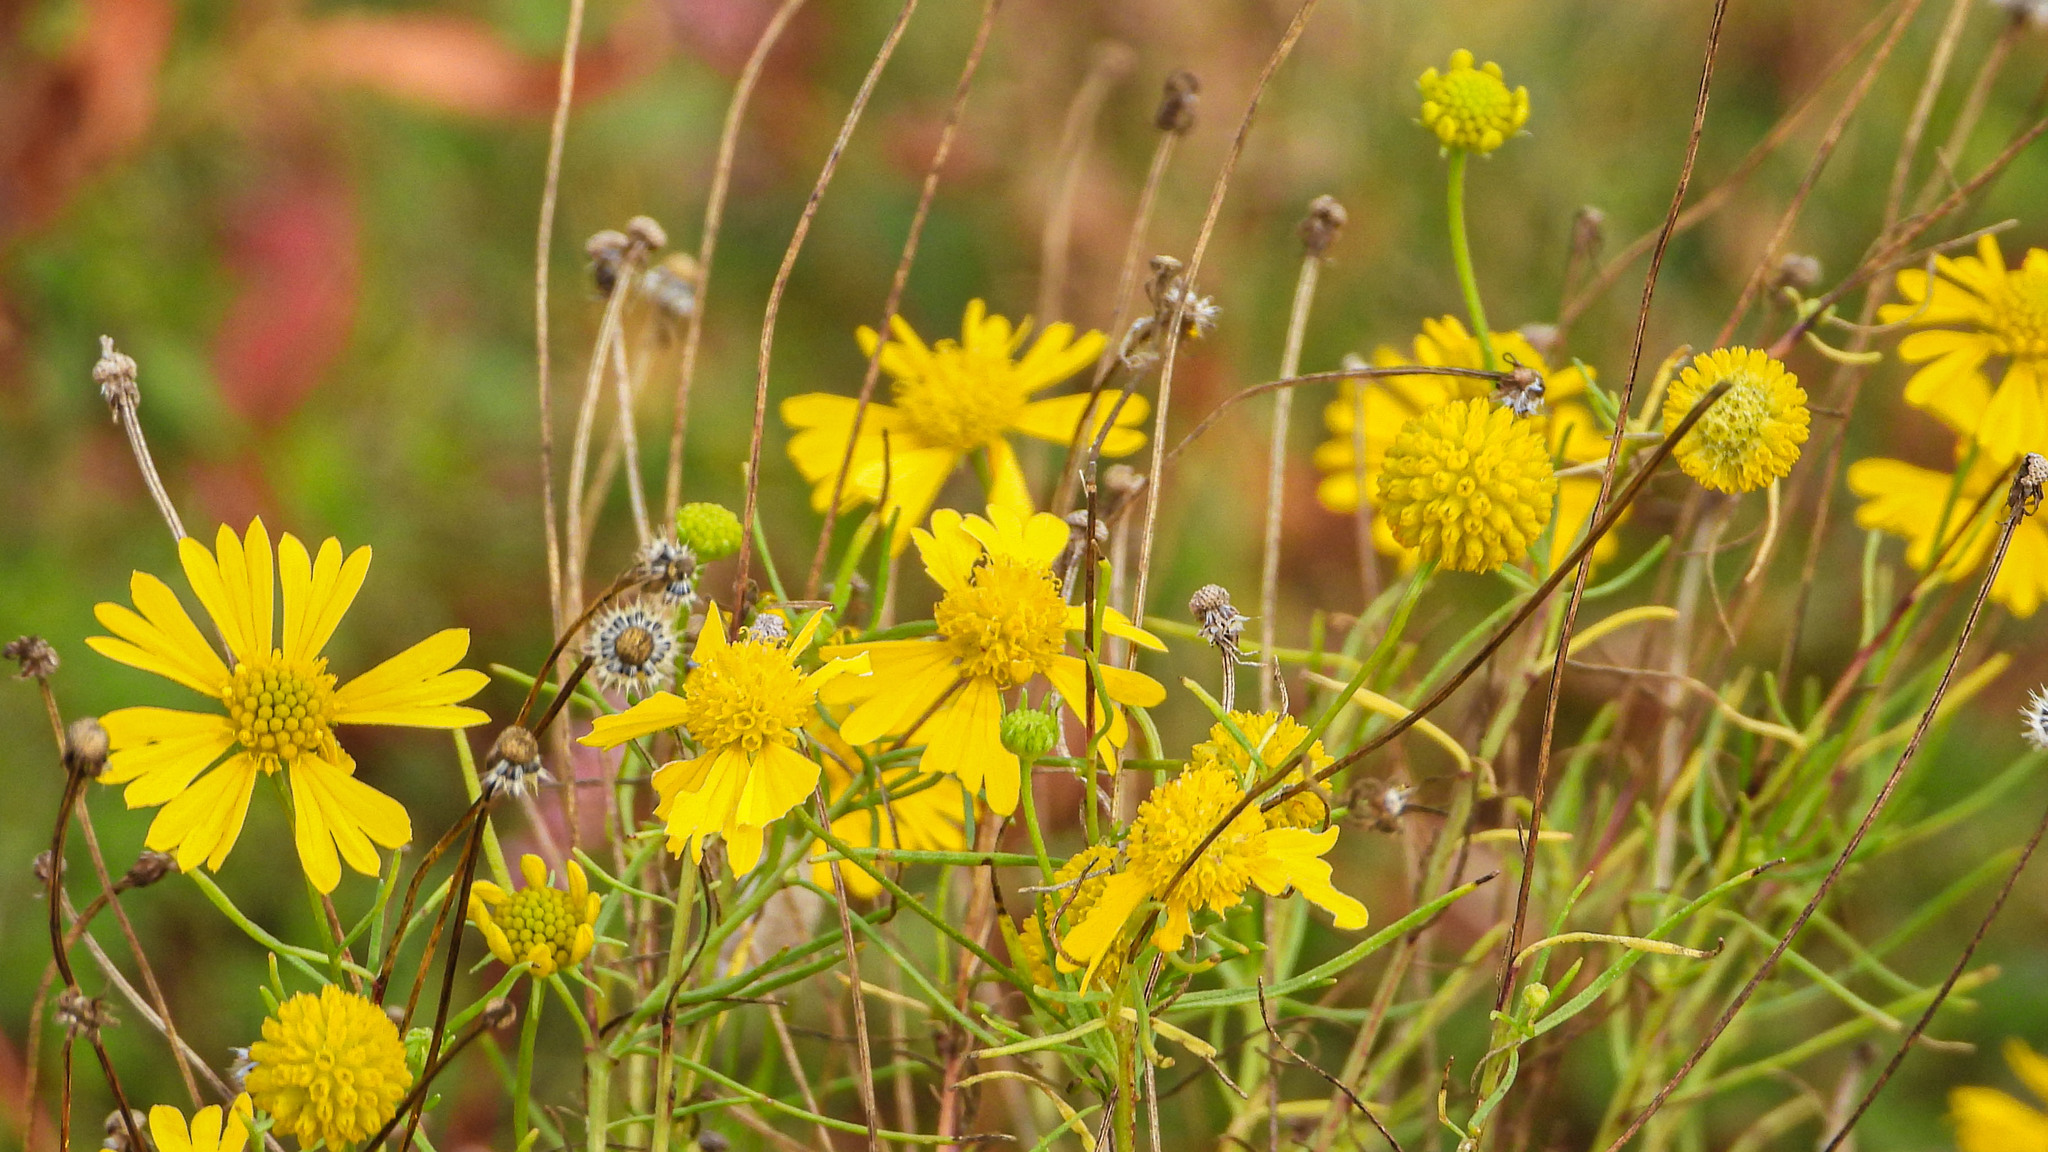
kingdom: Plantae
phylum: Tracheophyta
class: Magnoliopsida
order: Asterales
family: Asteraceae
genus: Helenium
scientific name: Helenium amarum
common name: Bitter sneezeweed
